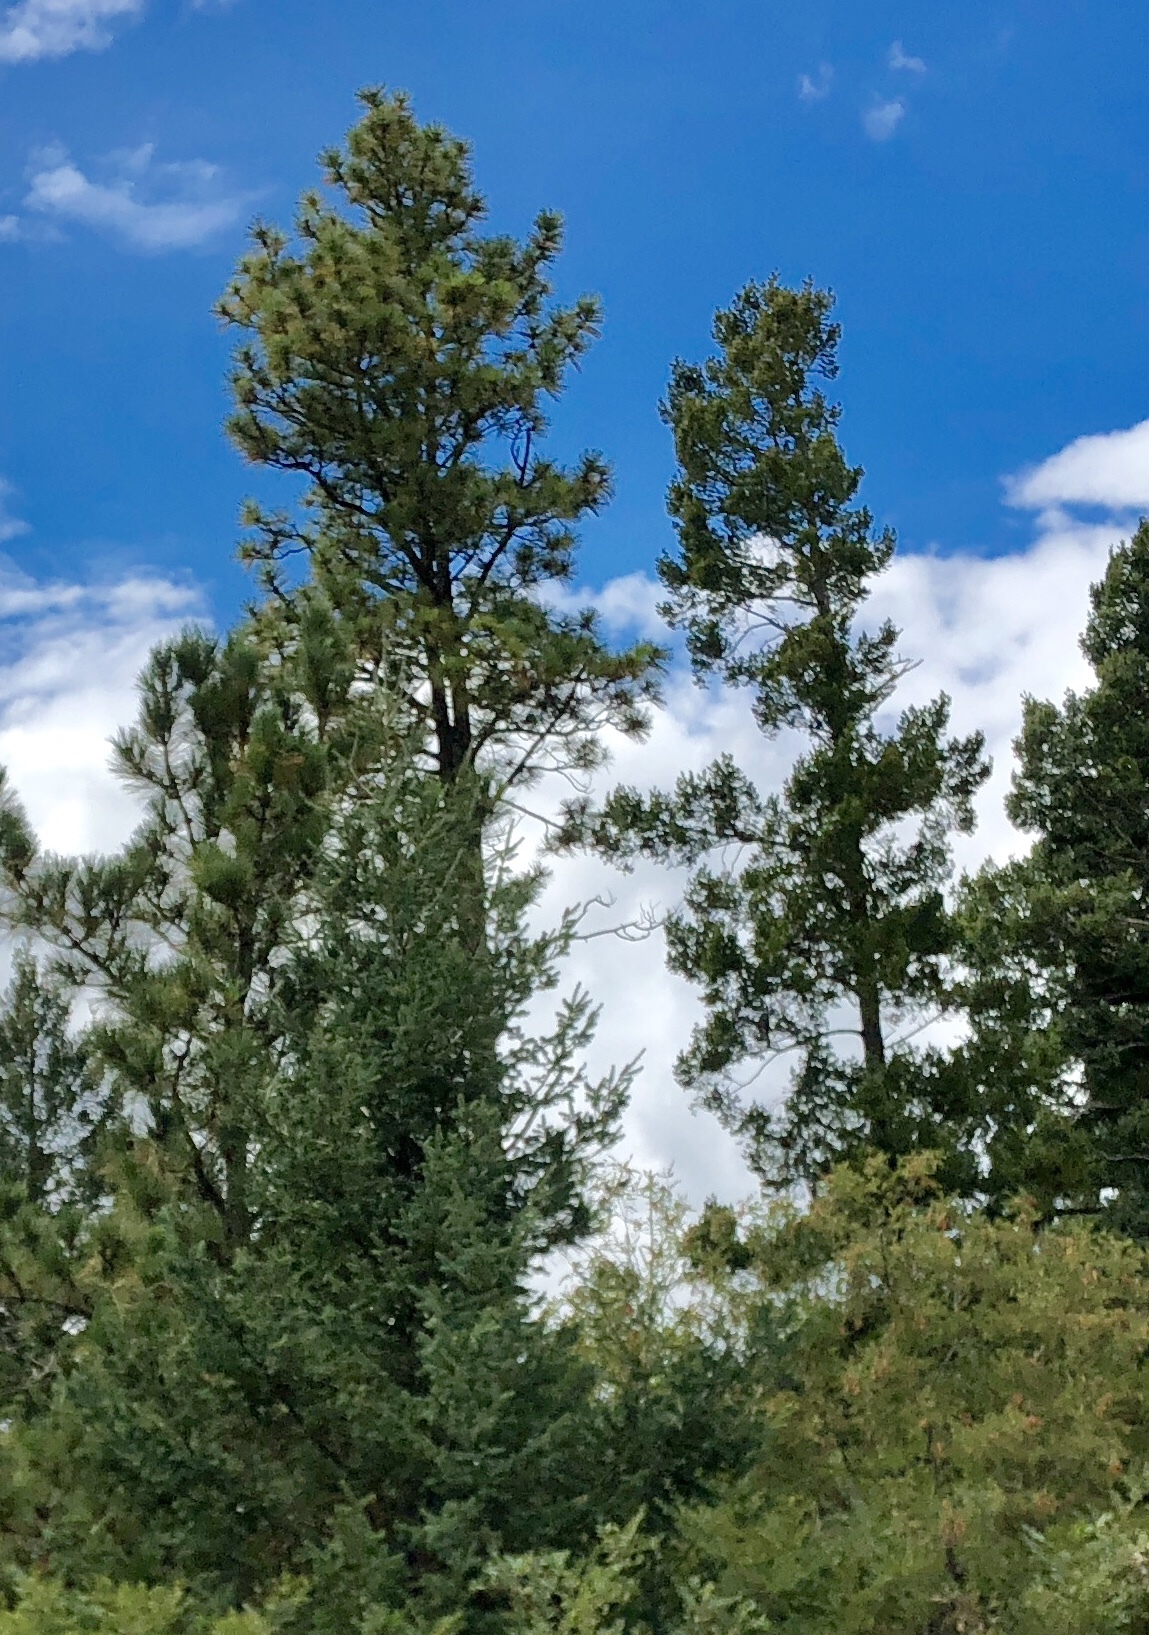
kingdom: Plantae
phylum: Tracheophyta
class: Pinopsida
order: Pinales
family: Pinaceae
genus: Pinus
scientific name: Pinus ponderosa
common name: Western yellow-pine
